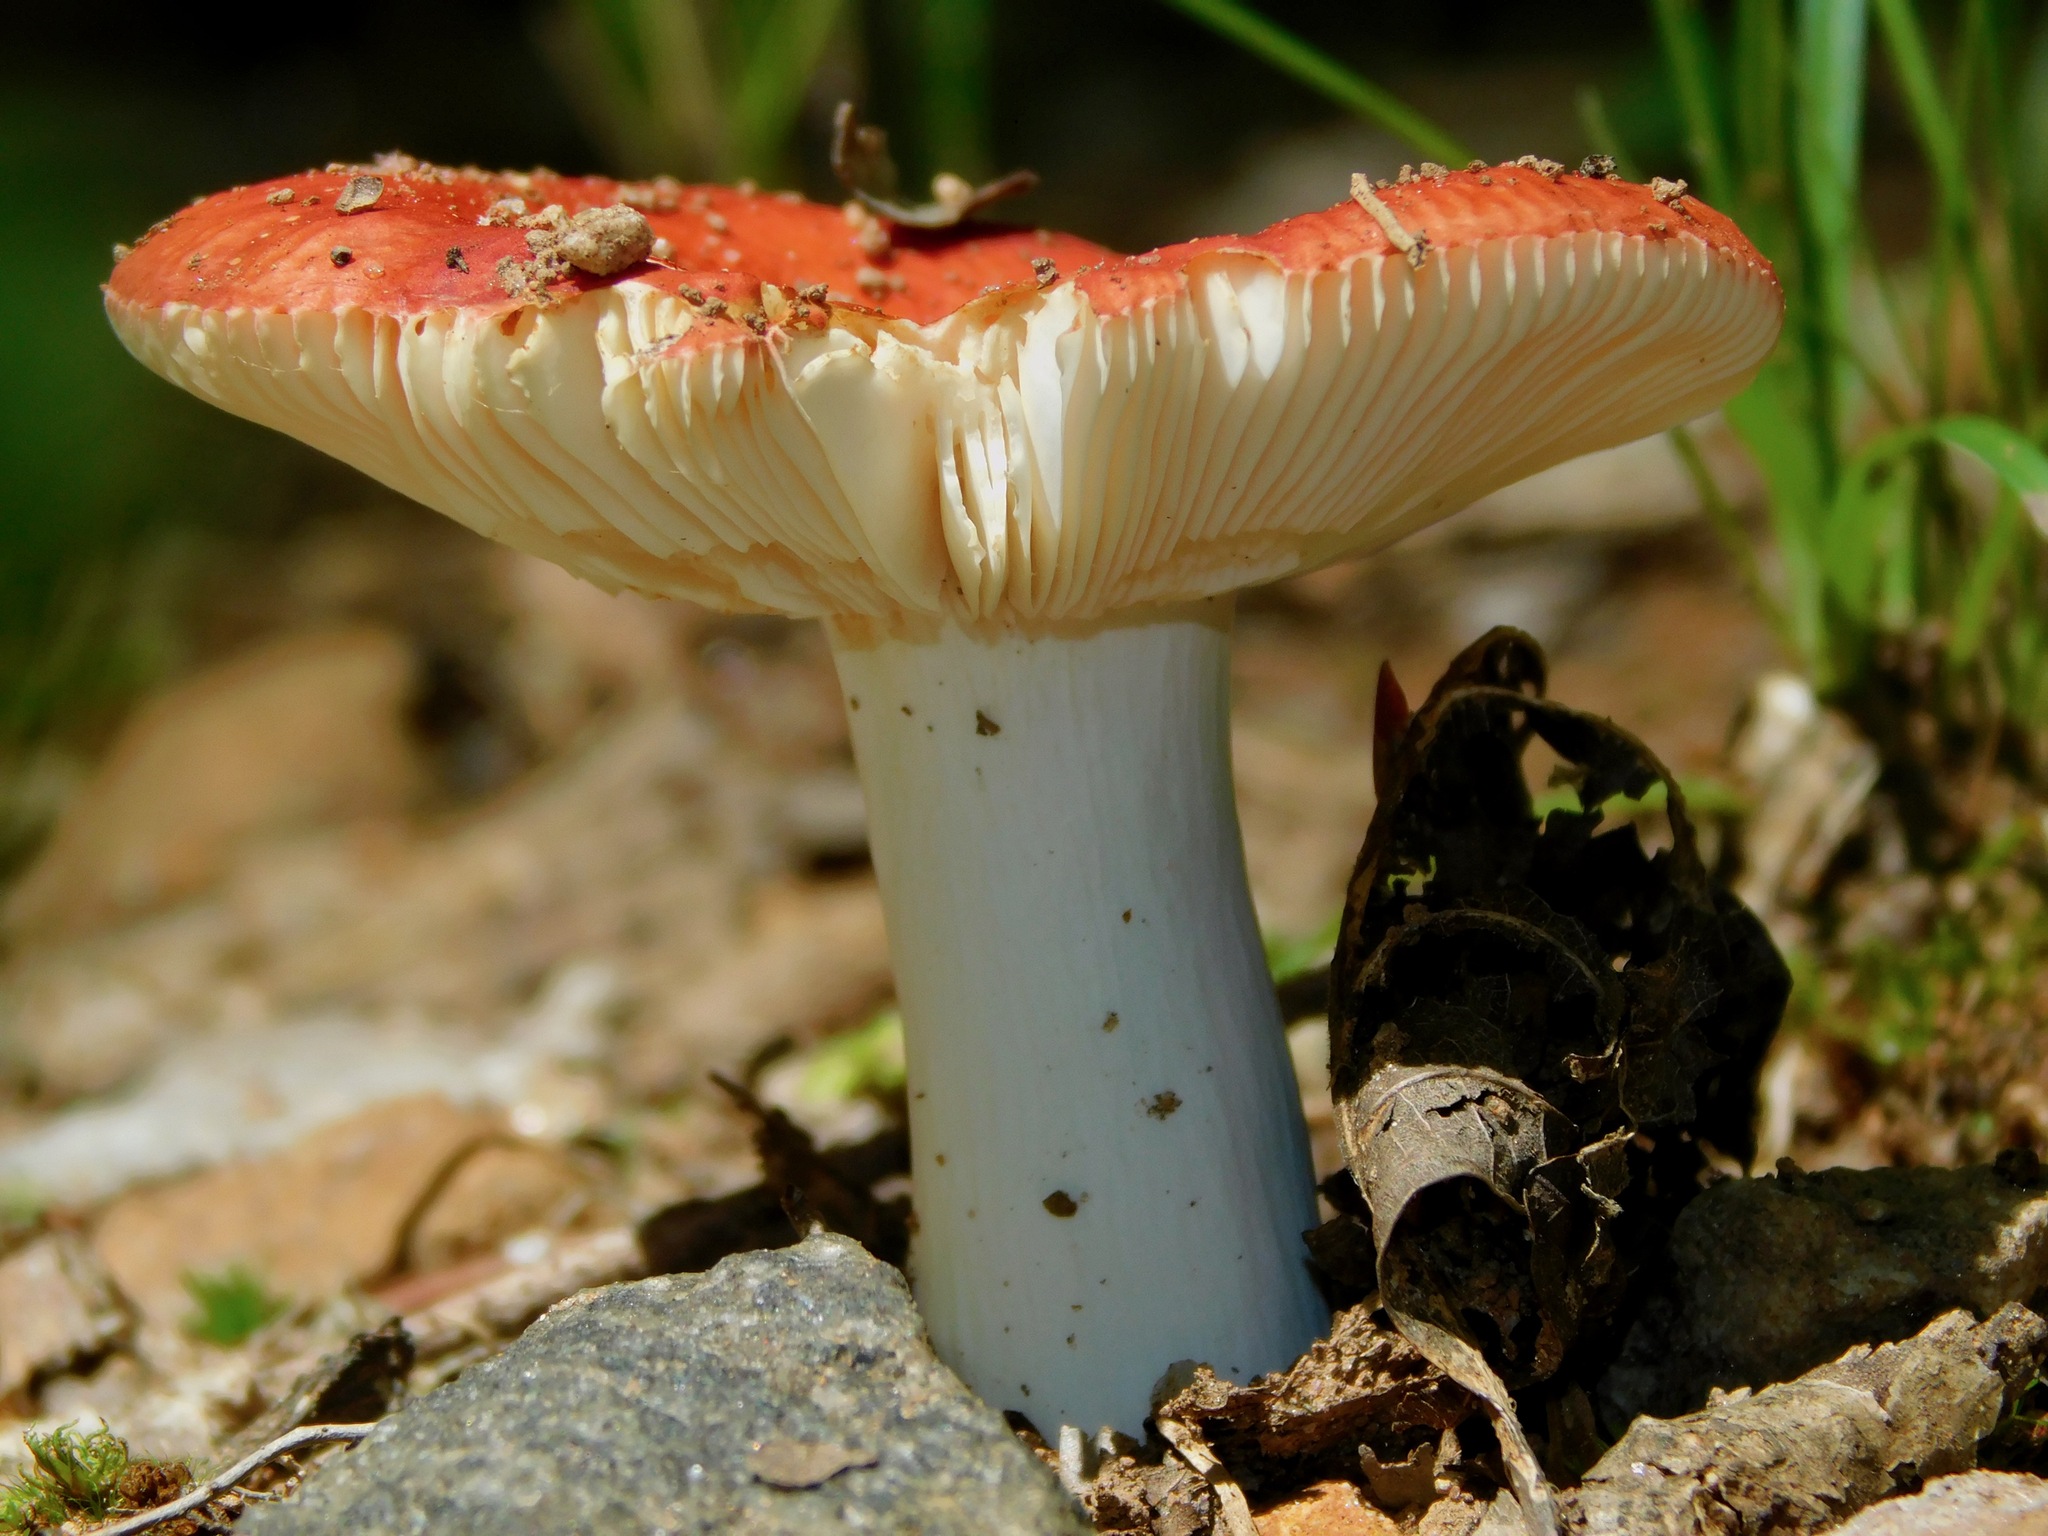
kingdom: Fungi
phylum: Basidiomycota
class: Agaricomycetes
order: Russulales
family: Russulaceae
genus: Russula
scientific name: Russula sanguinaria
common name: Bloody brittlegill
